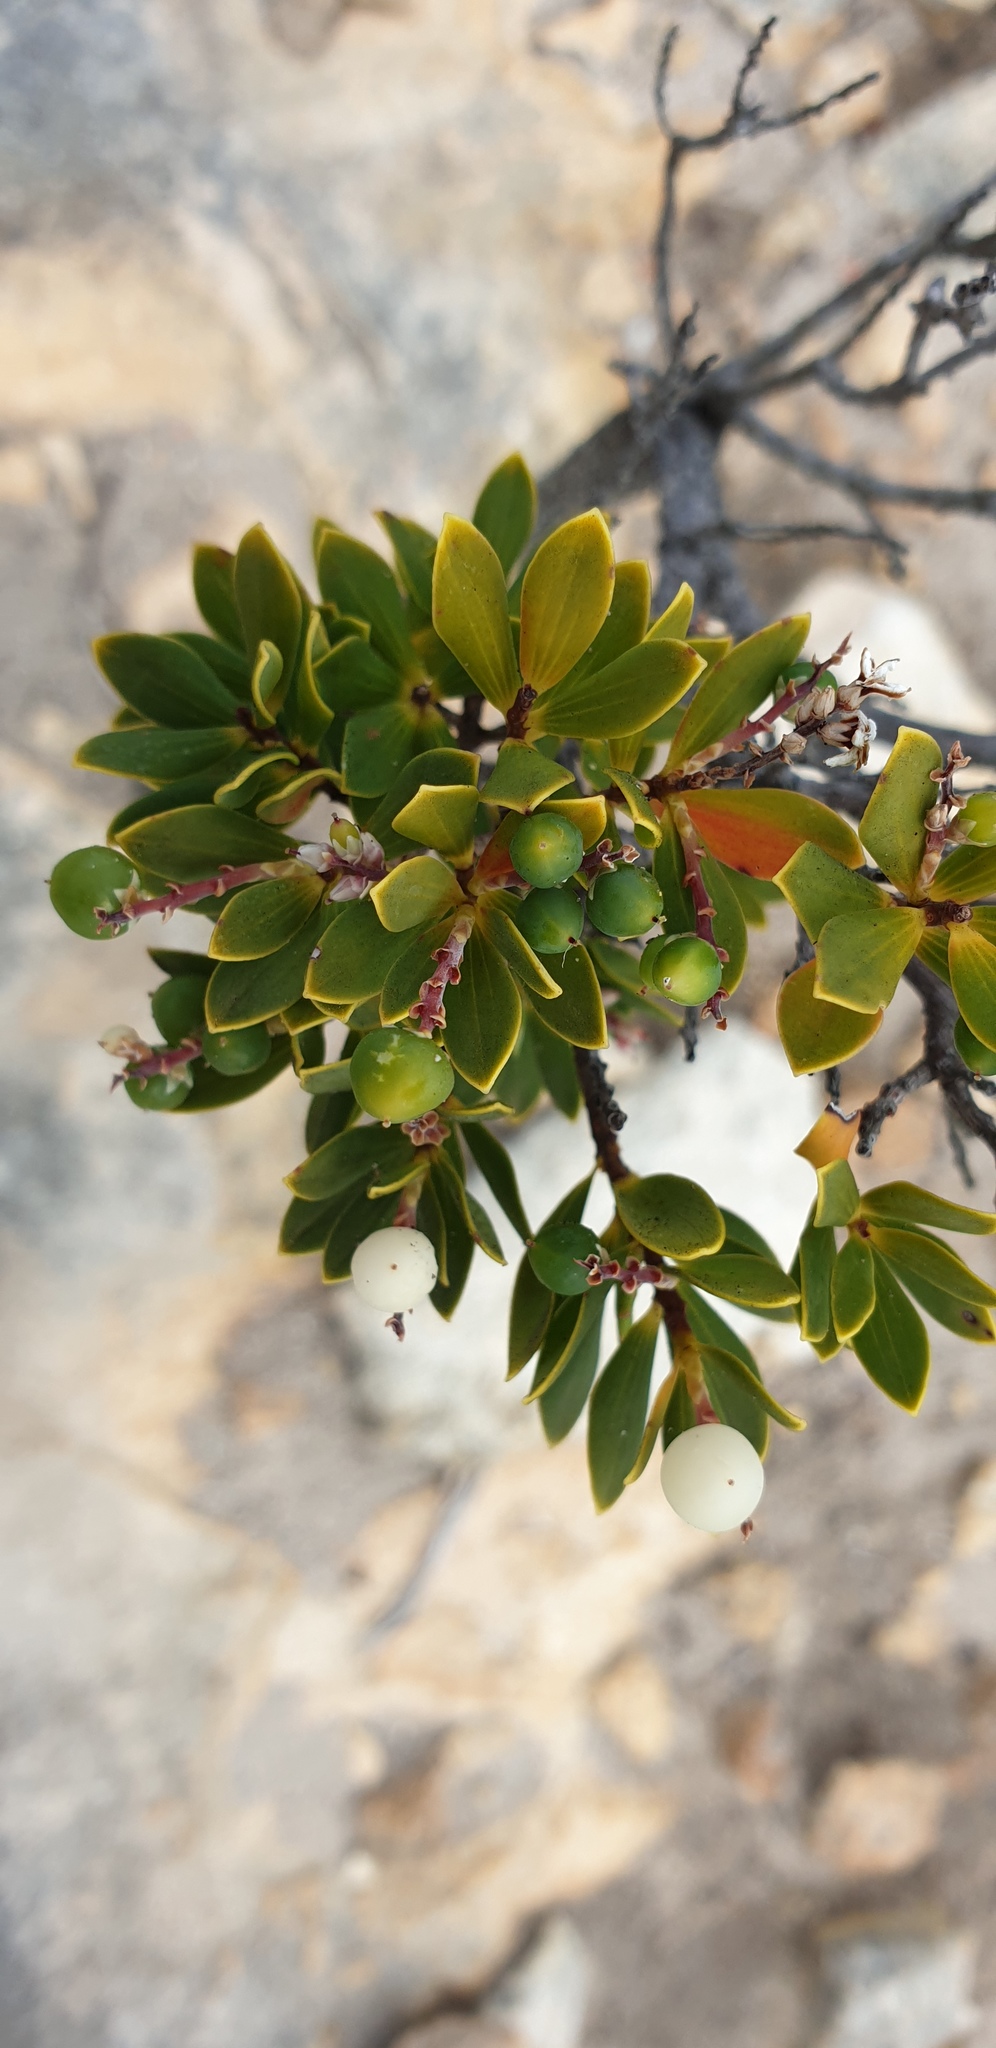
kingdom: Plantae
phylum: Tracheophyta
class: Magnoliopsida
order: Ericales
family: Ericaceae
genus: Leptecophylla
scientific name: Leptecophylla parvifolia
